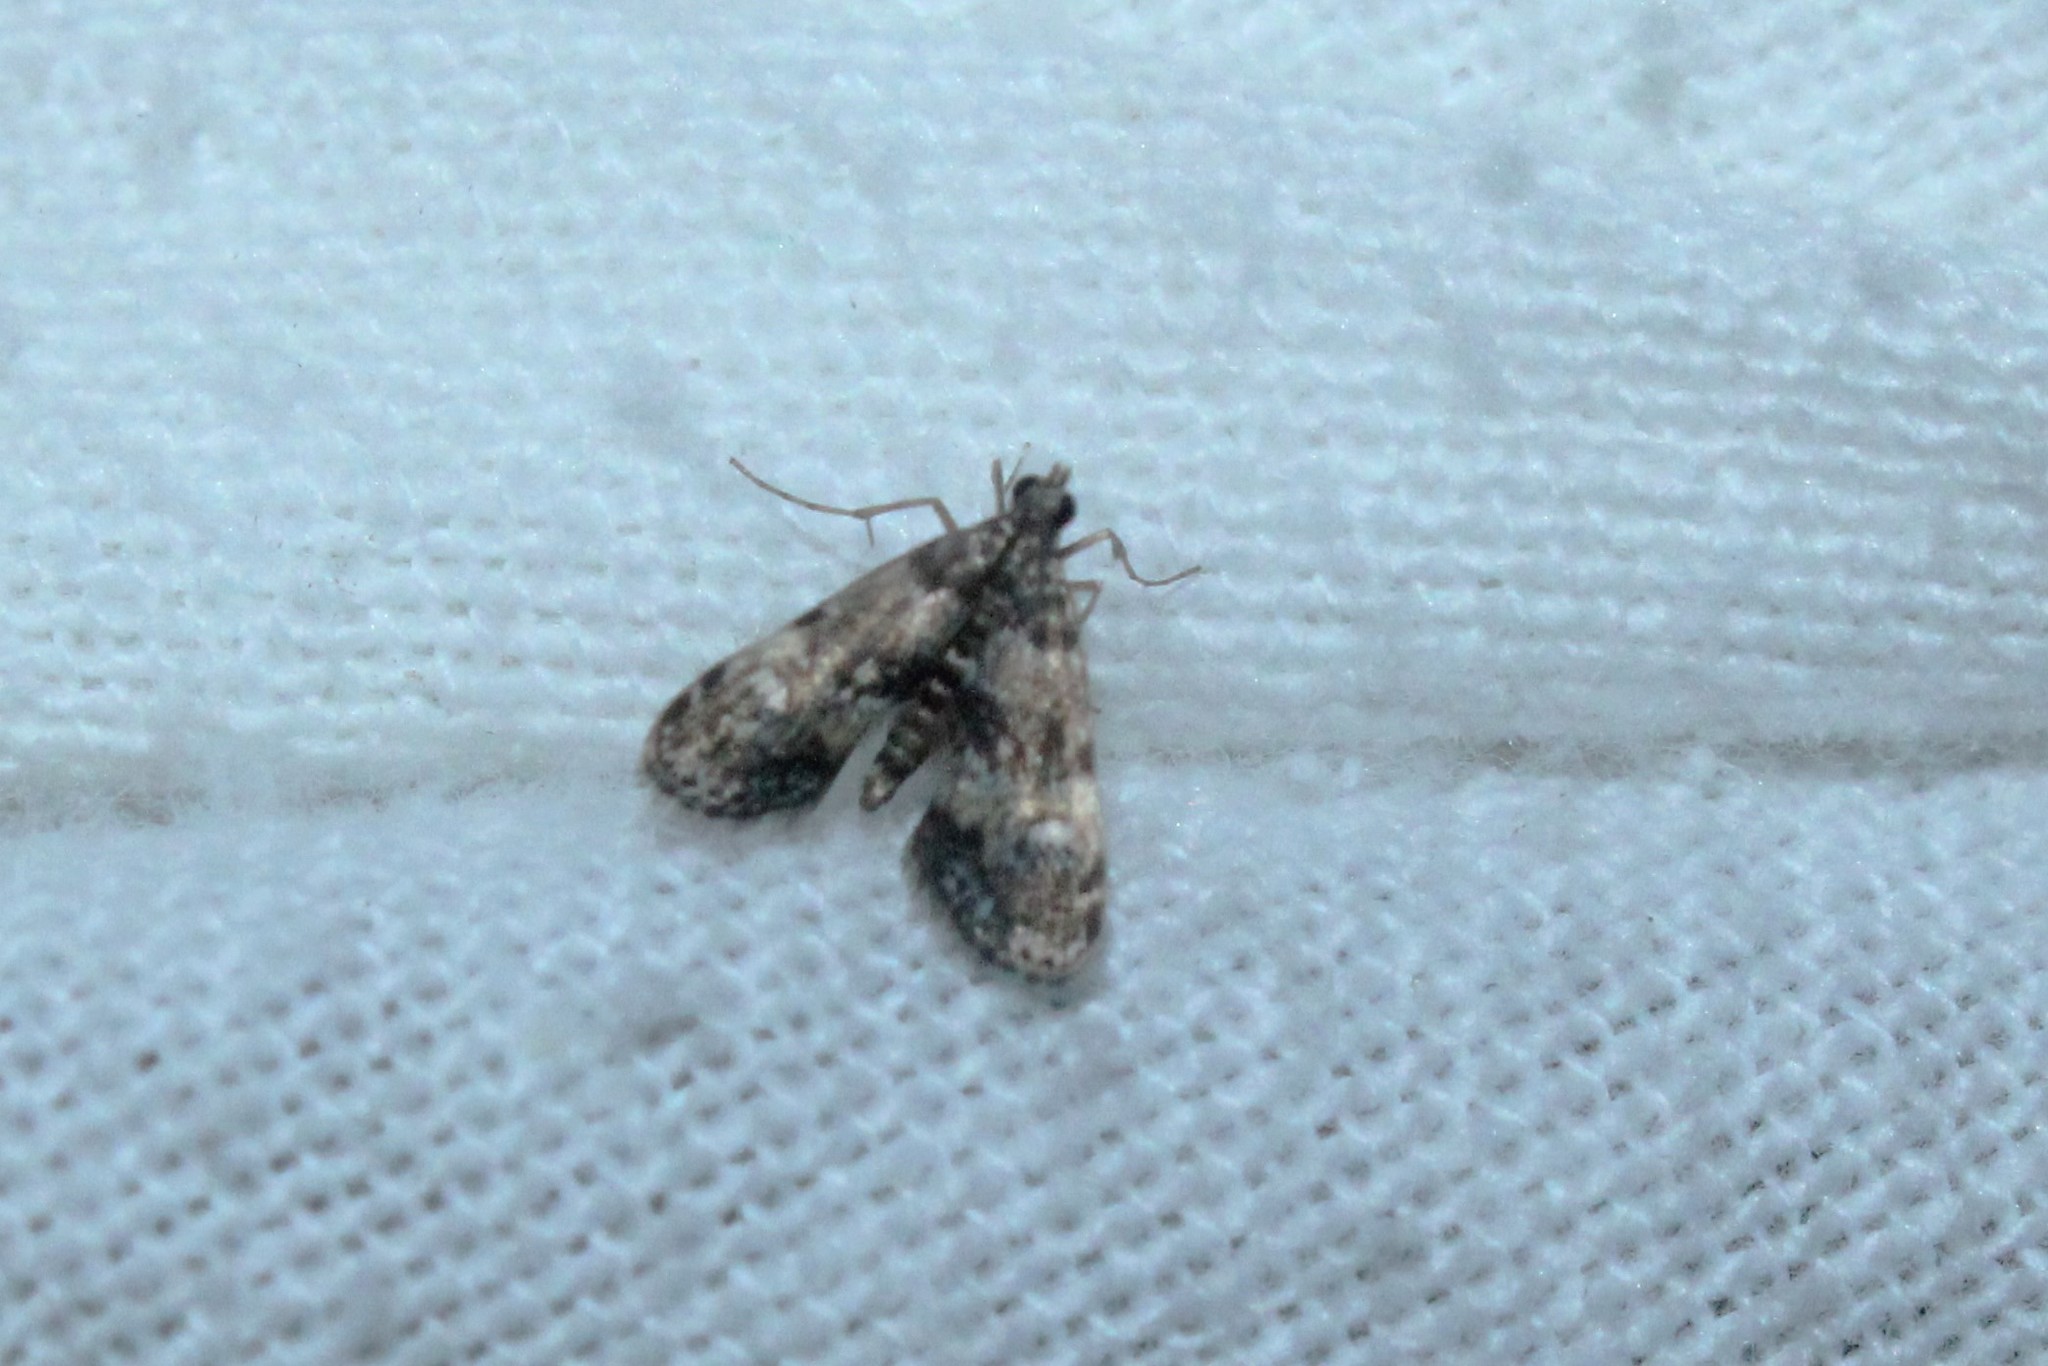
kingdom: Animalia
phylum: Arthropoda
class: Insecta
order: Lepidoptera
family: Crambidae
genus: Elophila
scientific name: Elophila obliteralis
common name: Waterlily leafcutter moth
